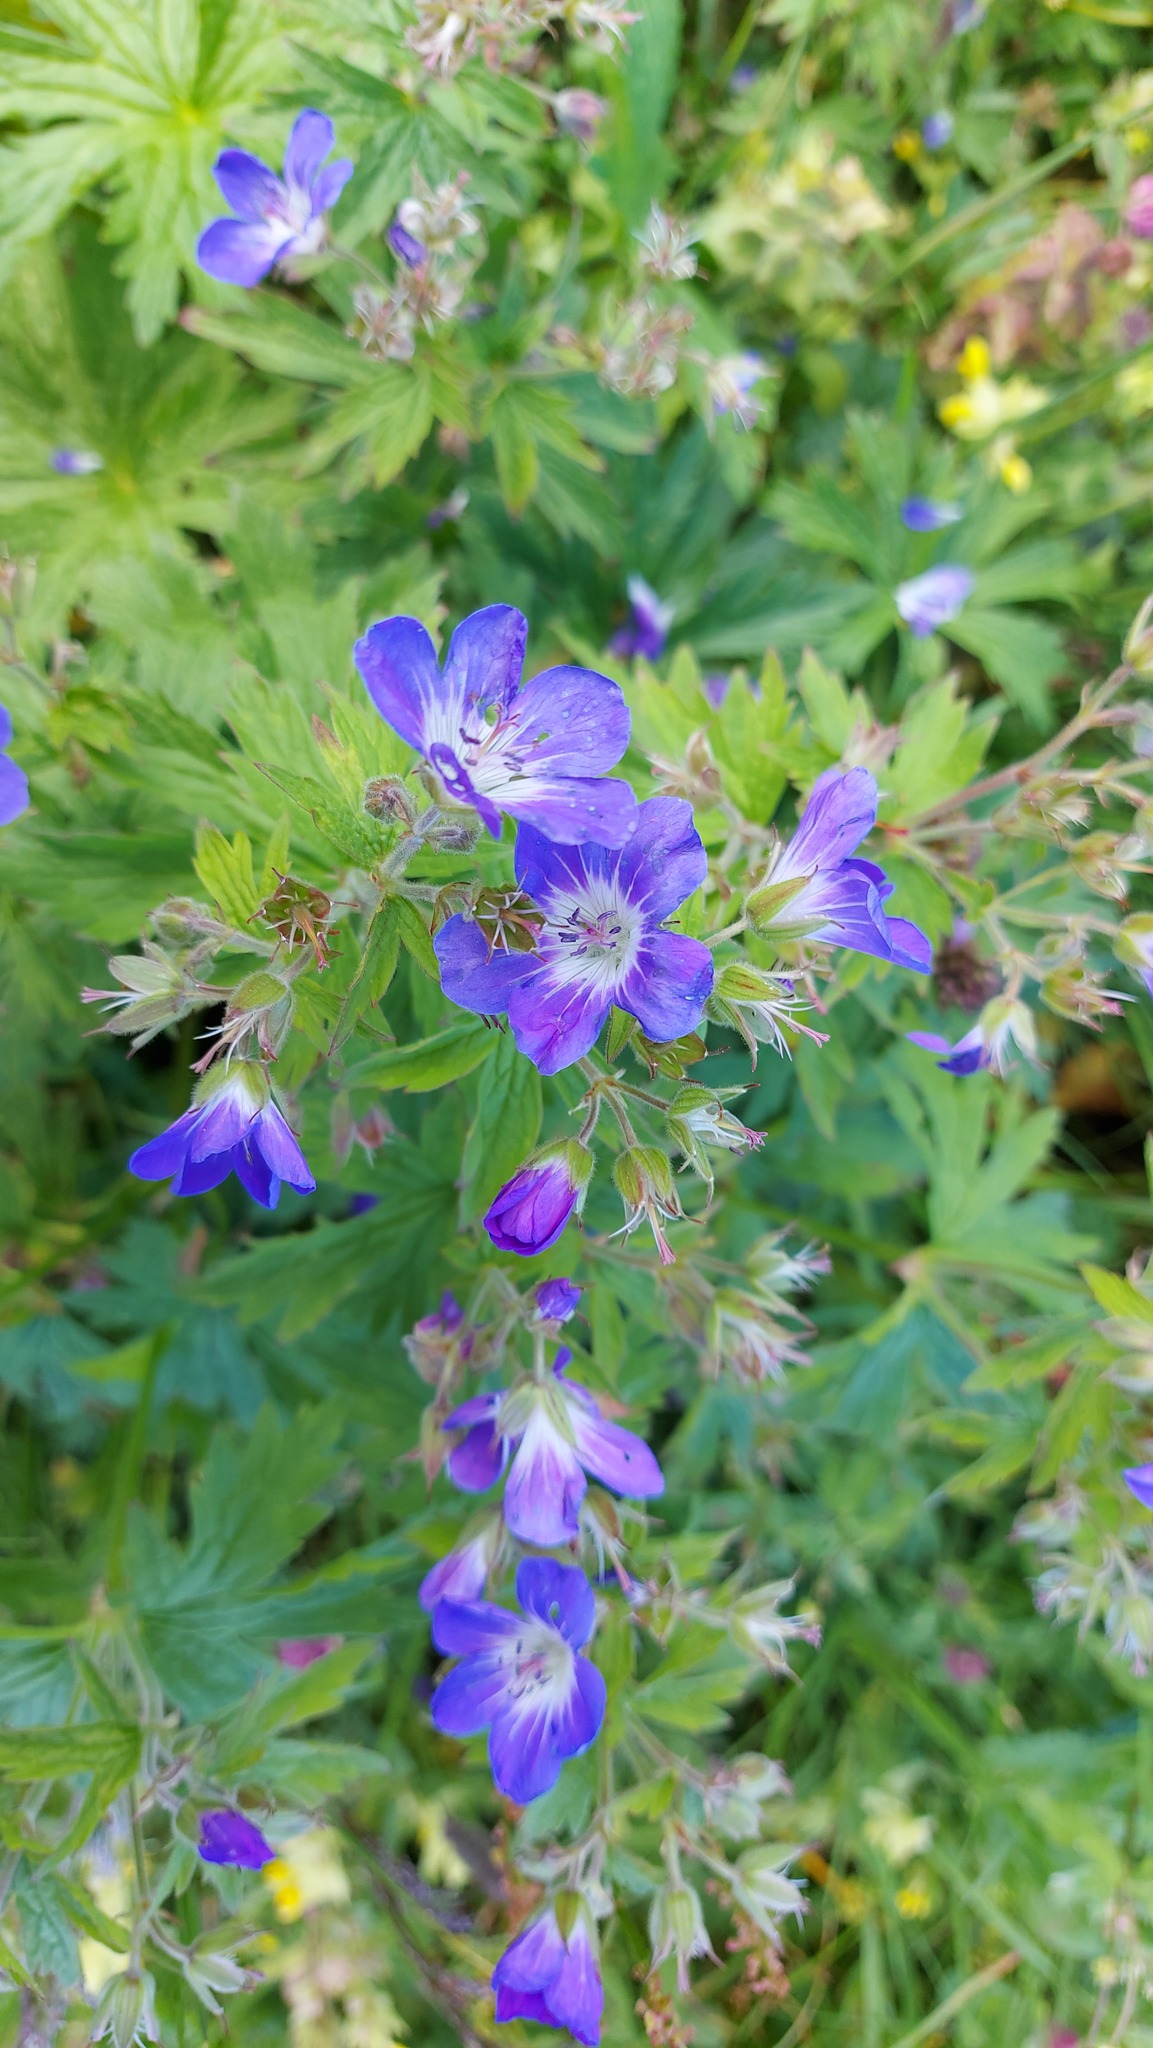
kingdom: Plantae
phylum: Tracheophyta
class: Magnoliopsida
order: Geraniales
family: Geraniaceae
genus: Geranium
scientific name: Geranium sylvaticum
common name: Wood crane's-bill
